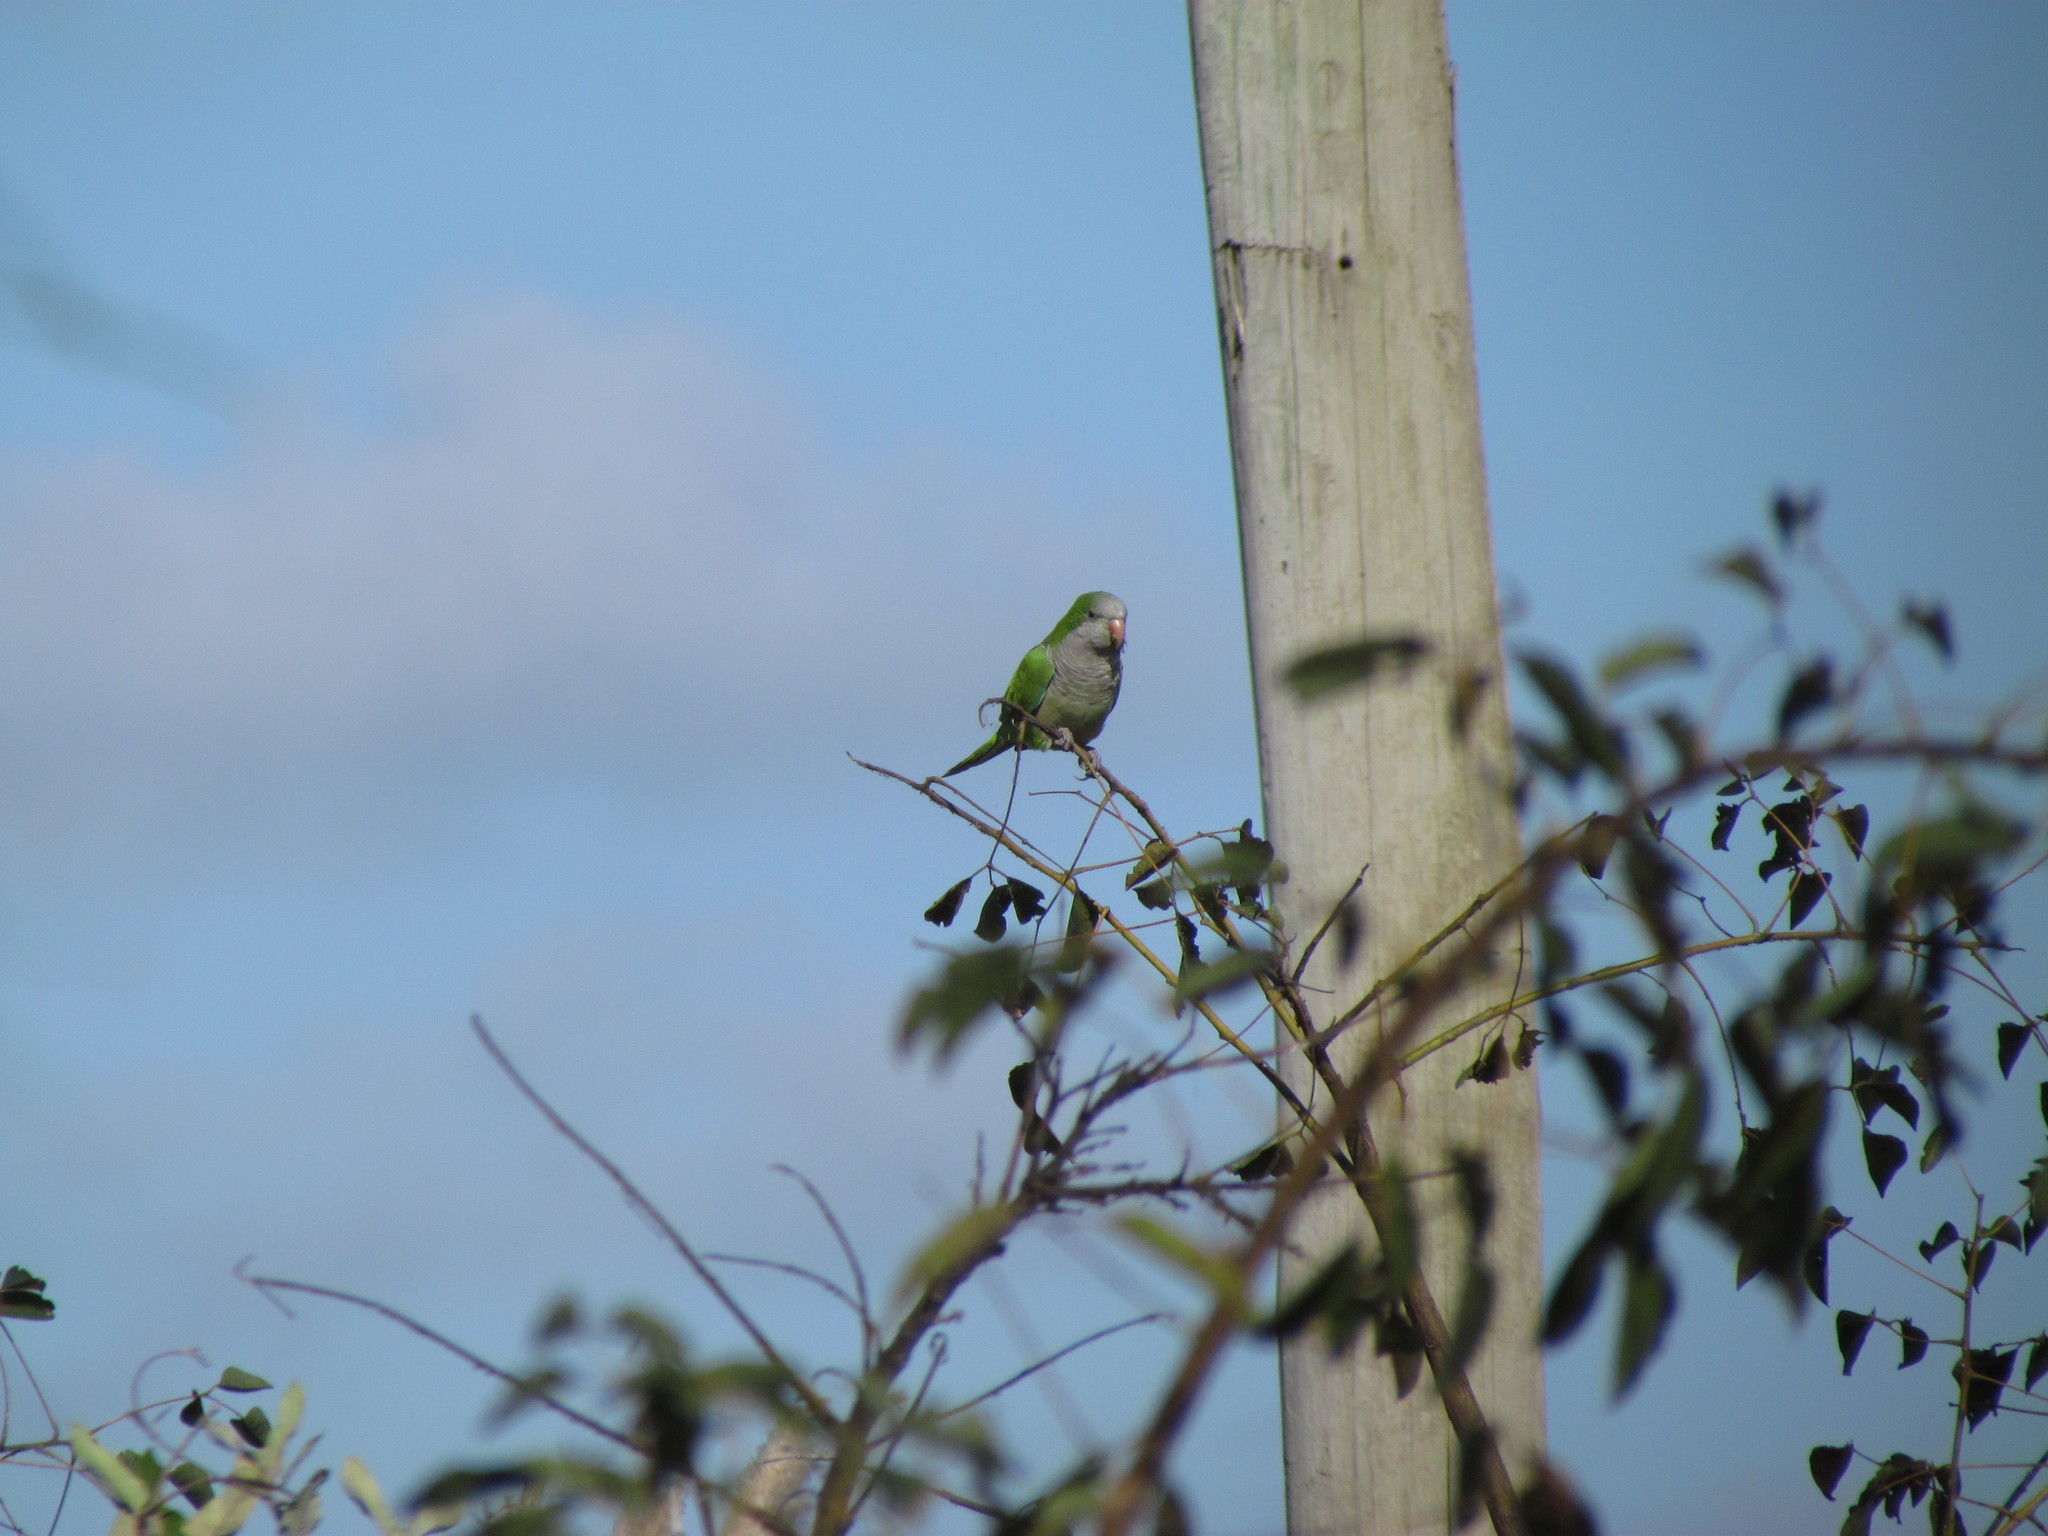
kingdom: Animalia
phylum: Chordata
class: Aves
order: Psittaciformes
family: Psittacidae
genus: Myiopsitta
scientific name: Myiopsitta monachus
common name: Monk parakeet
